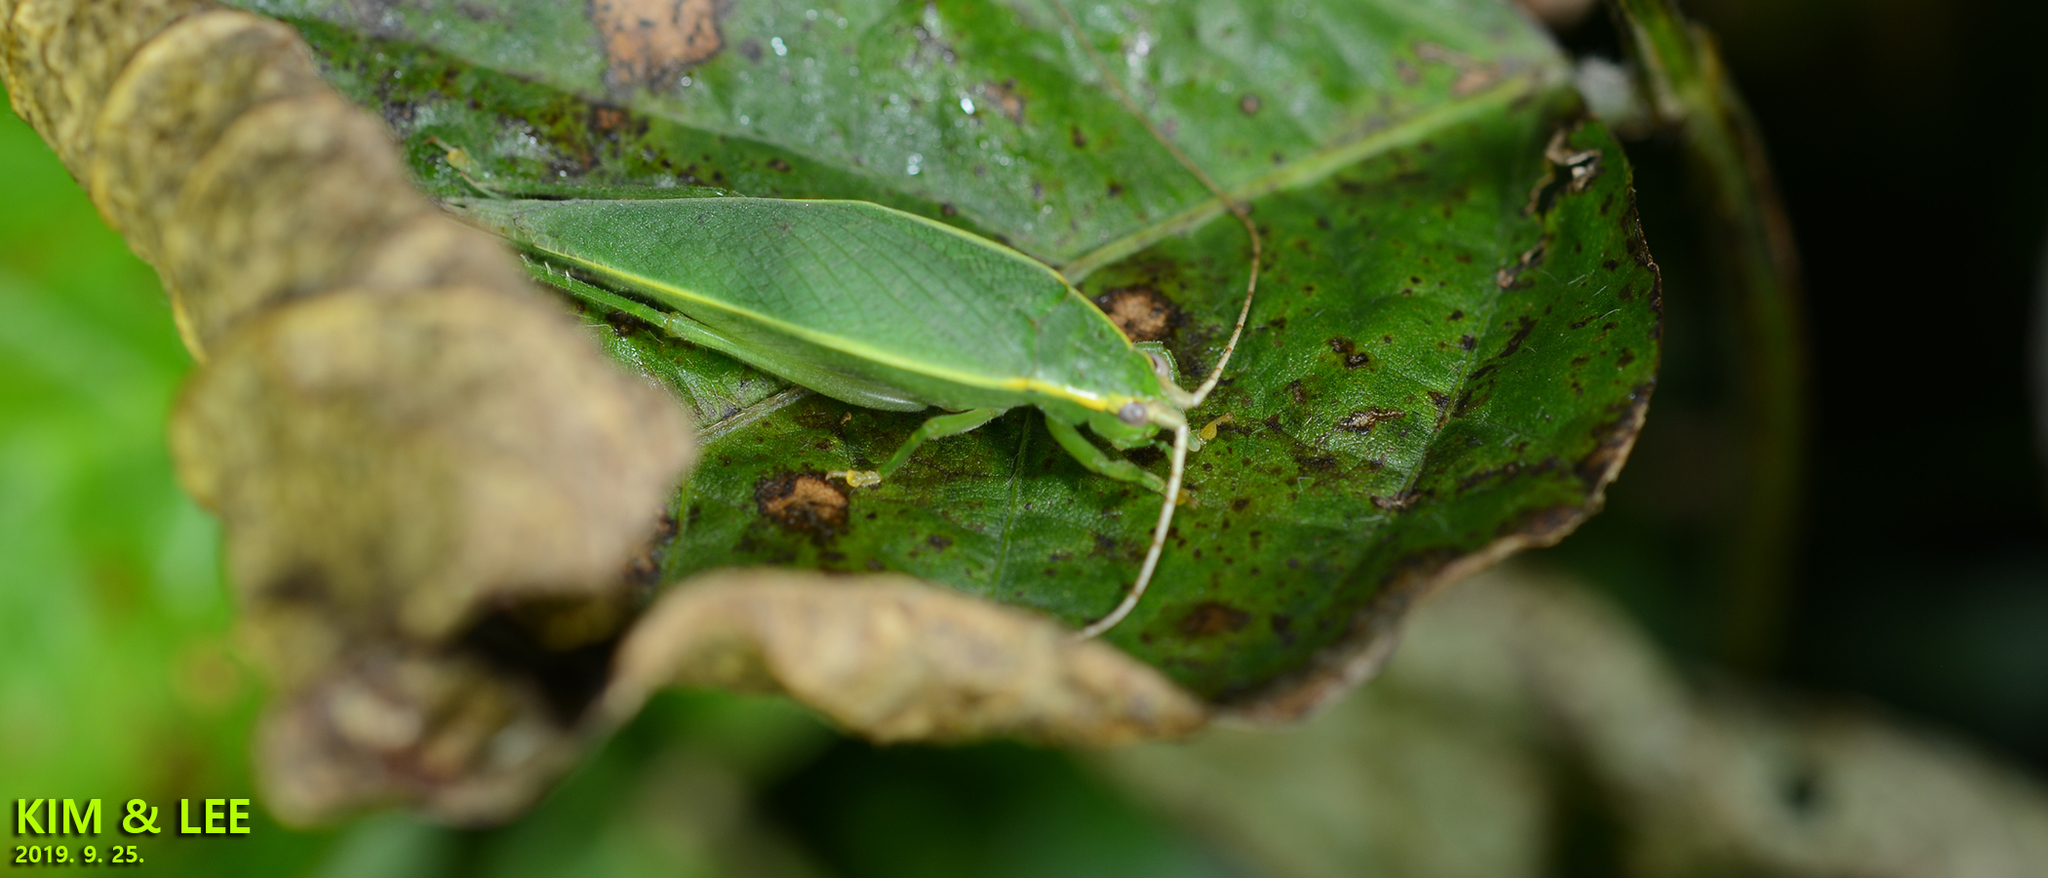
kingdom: Animalia
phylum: Arthropoda
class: Insecta
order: Orthoptera
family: Gryllidae
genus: Truljalia
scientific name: Truljalia hibinonis
